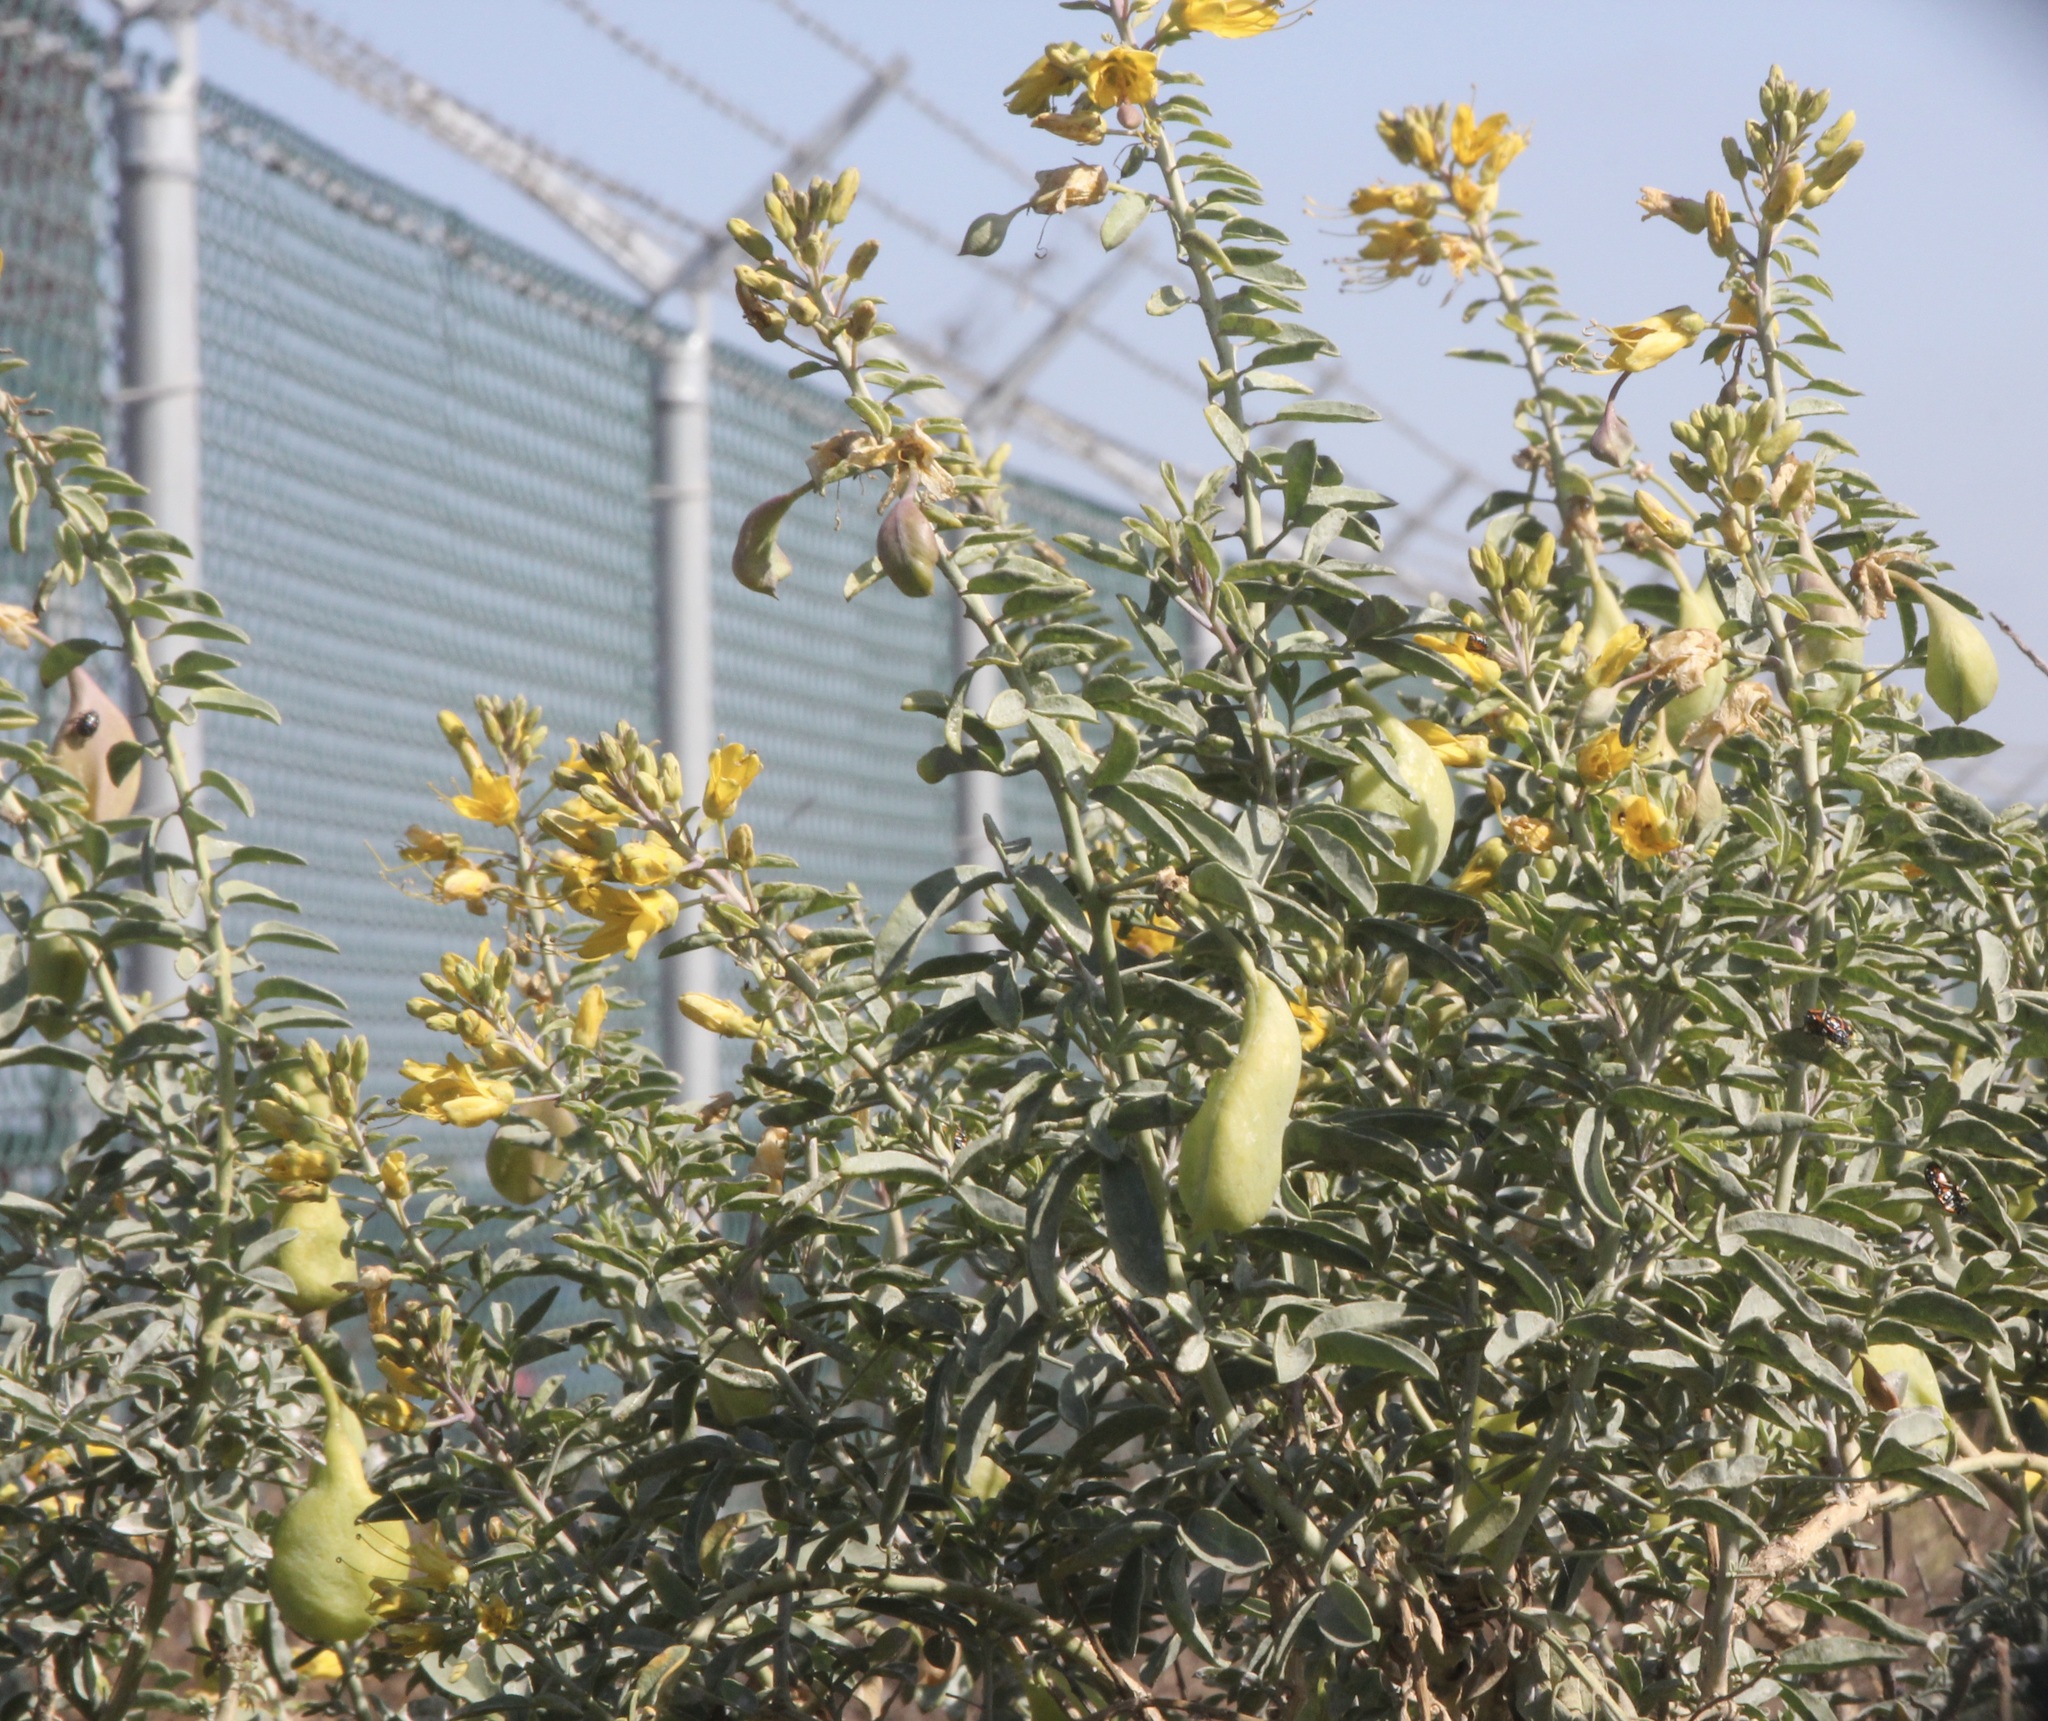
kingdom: Plantae
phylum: Tracheophyta
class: Magnoliopsida
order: Brassicales
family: Cleomaceae
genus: Cleomella
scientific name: Cleomella arborea
